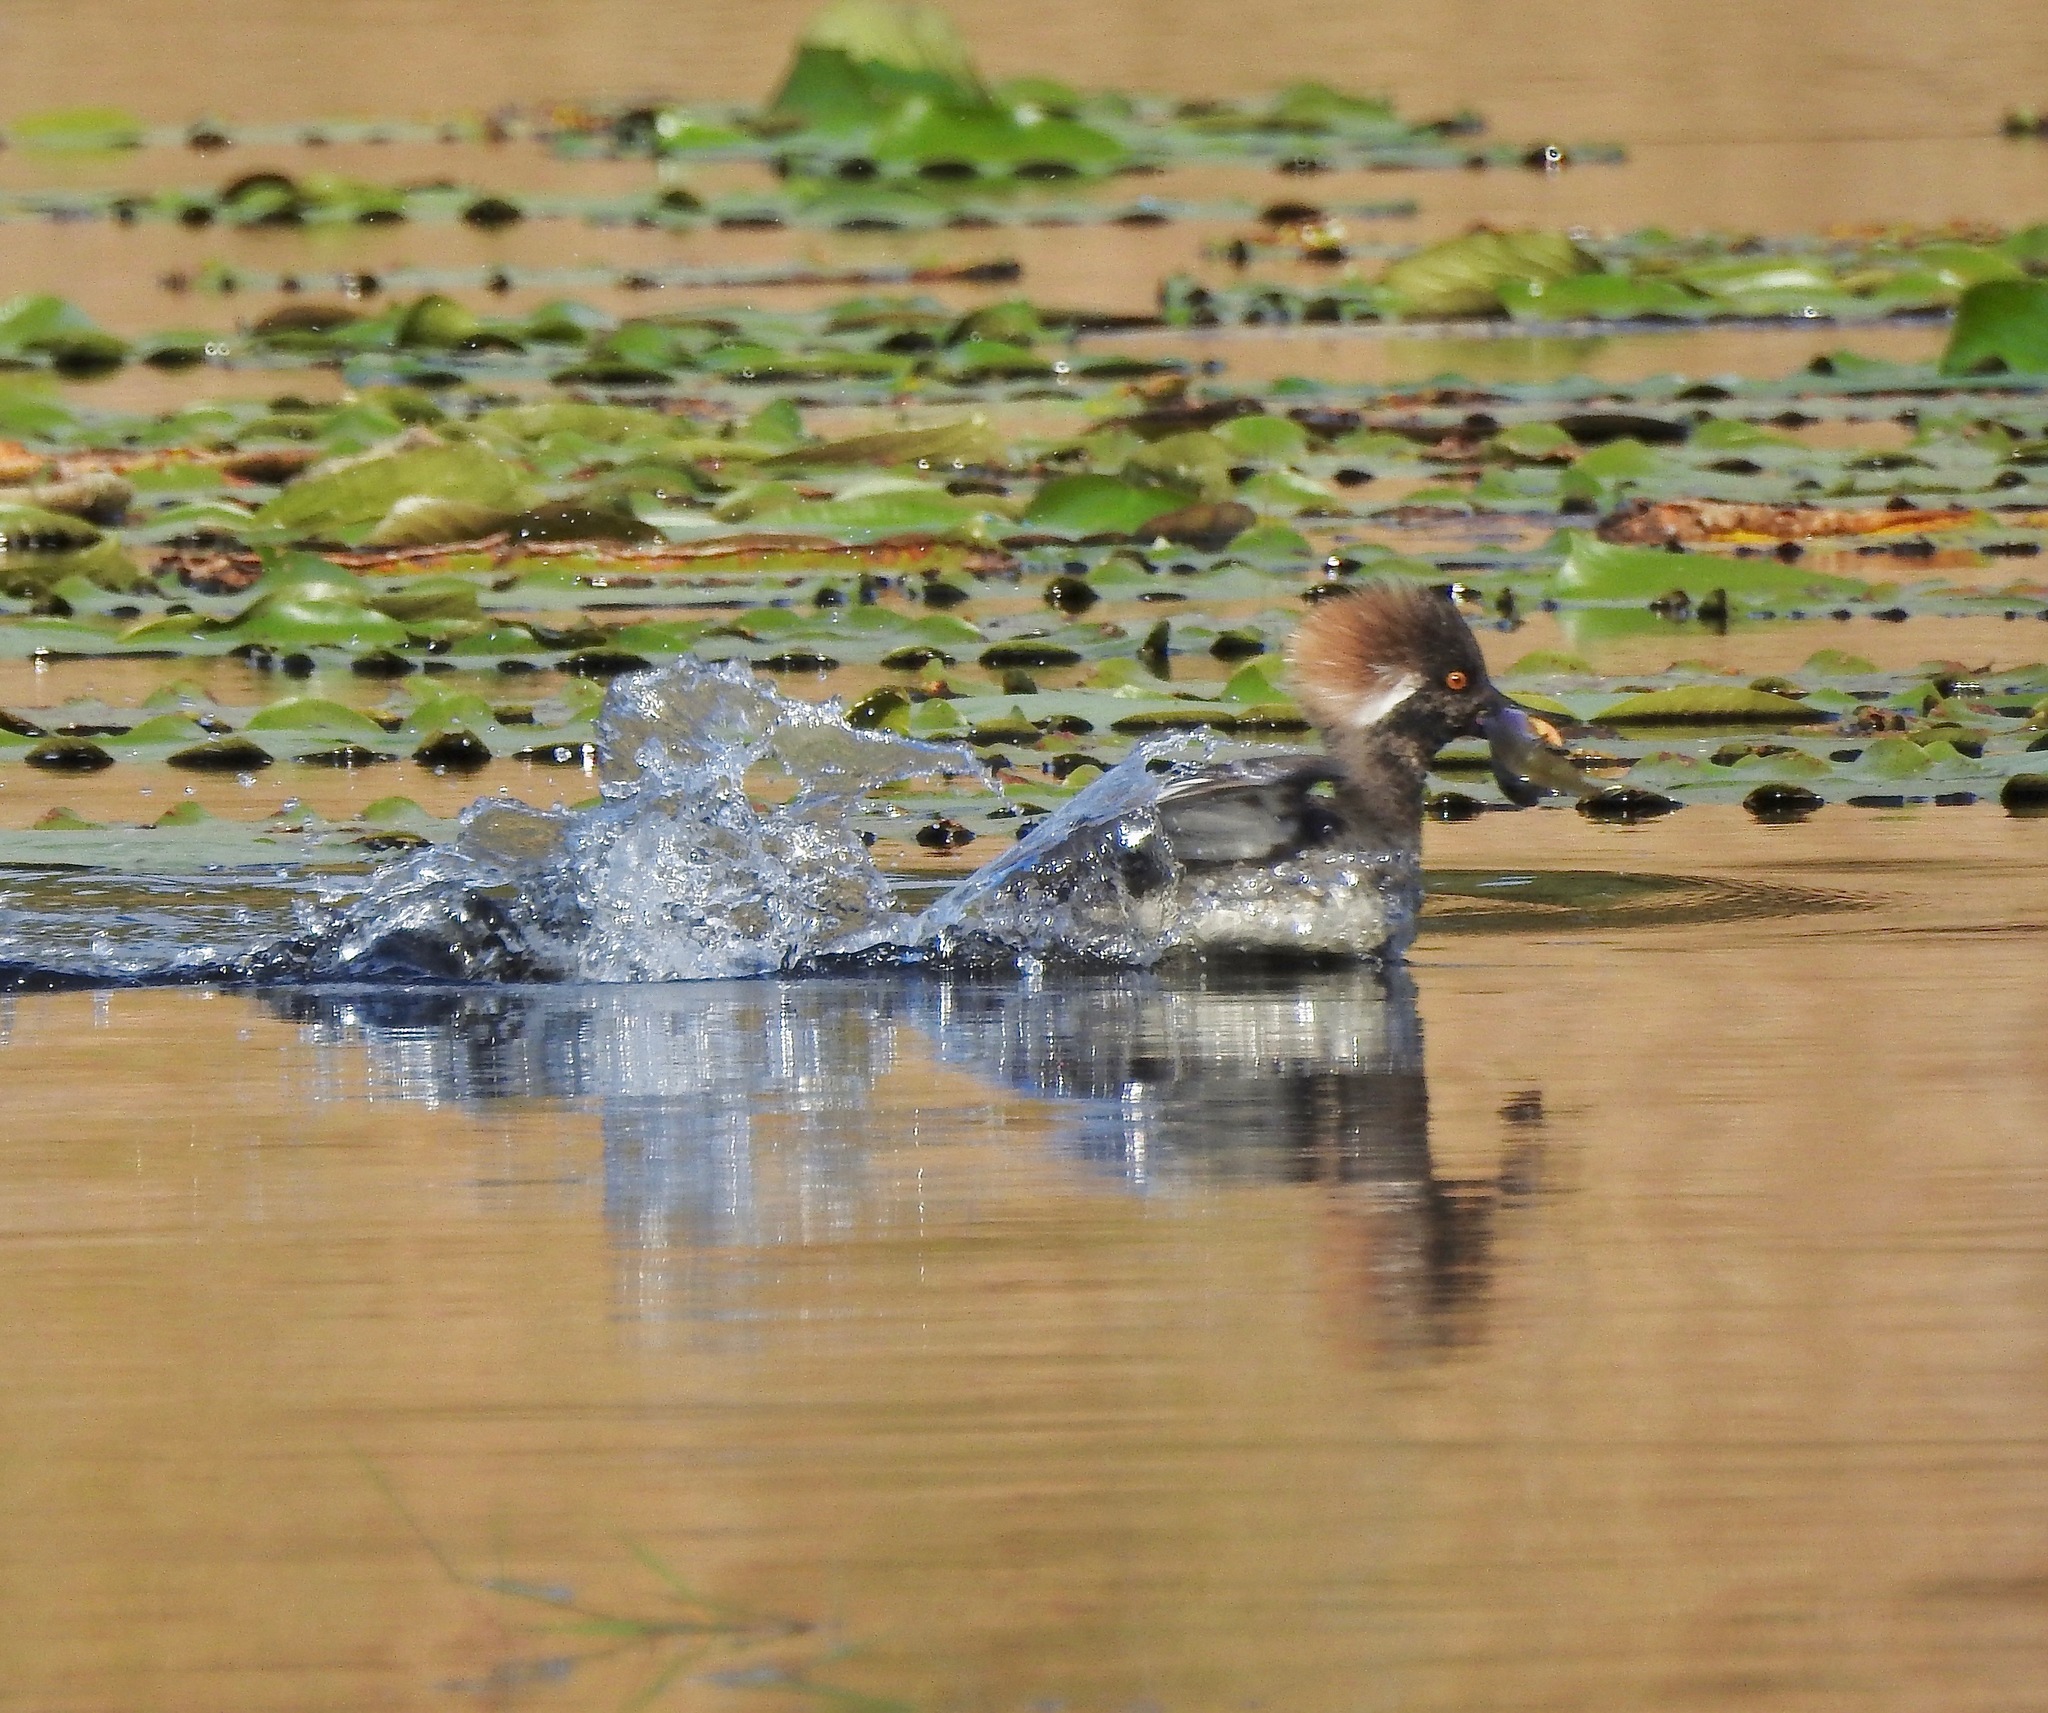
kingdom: Animalia
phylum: Chordata
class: Aves
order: Anseriformes
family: Anatidae
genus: Lophodytes
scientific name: Lophodytes cucullatus
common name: Hooded merganser
